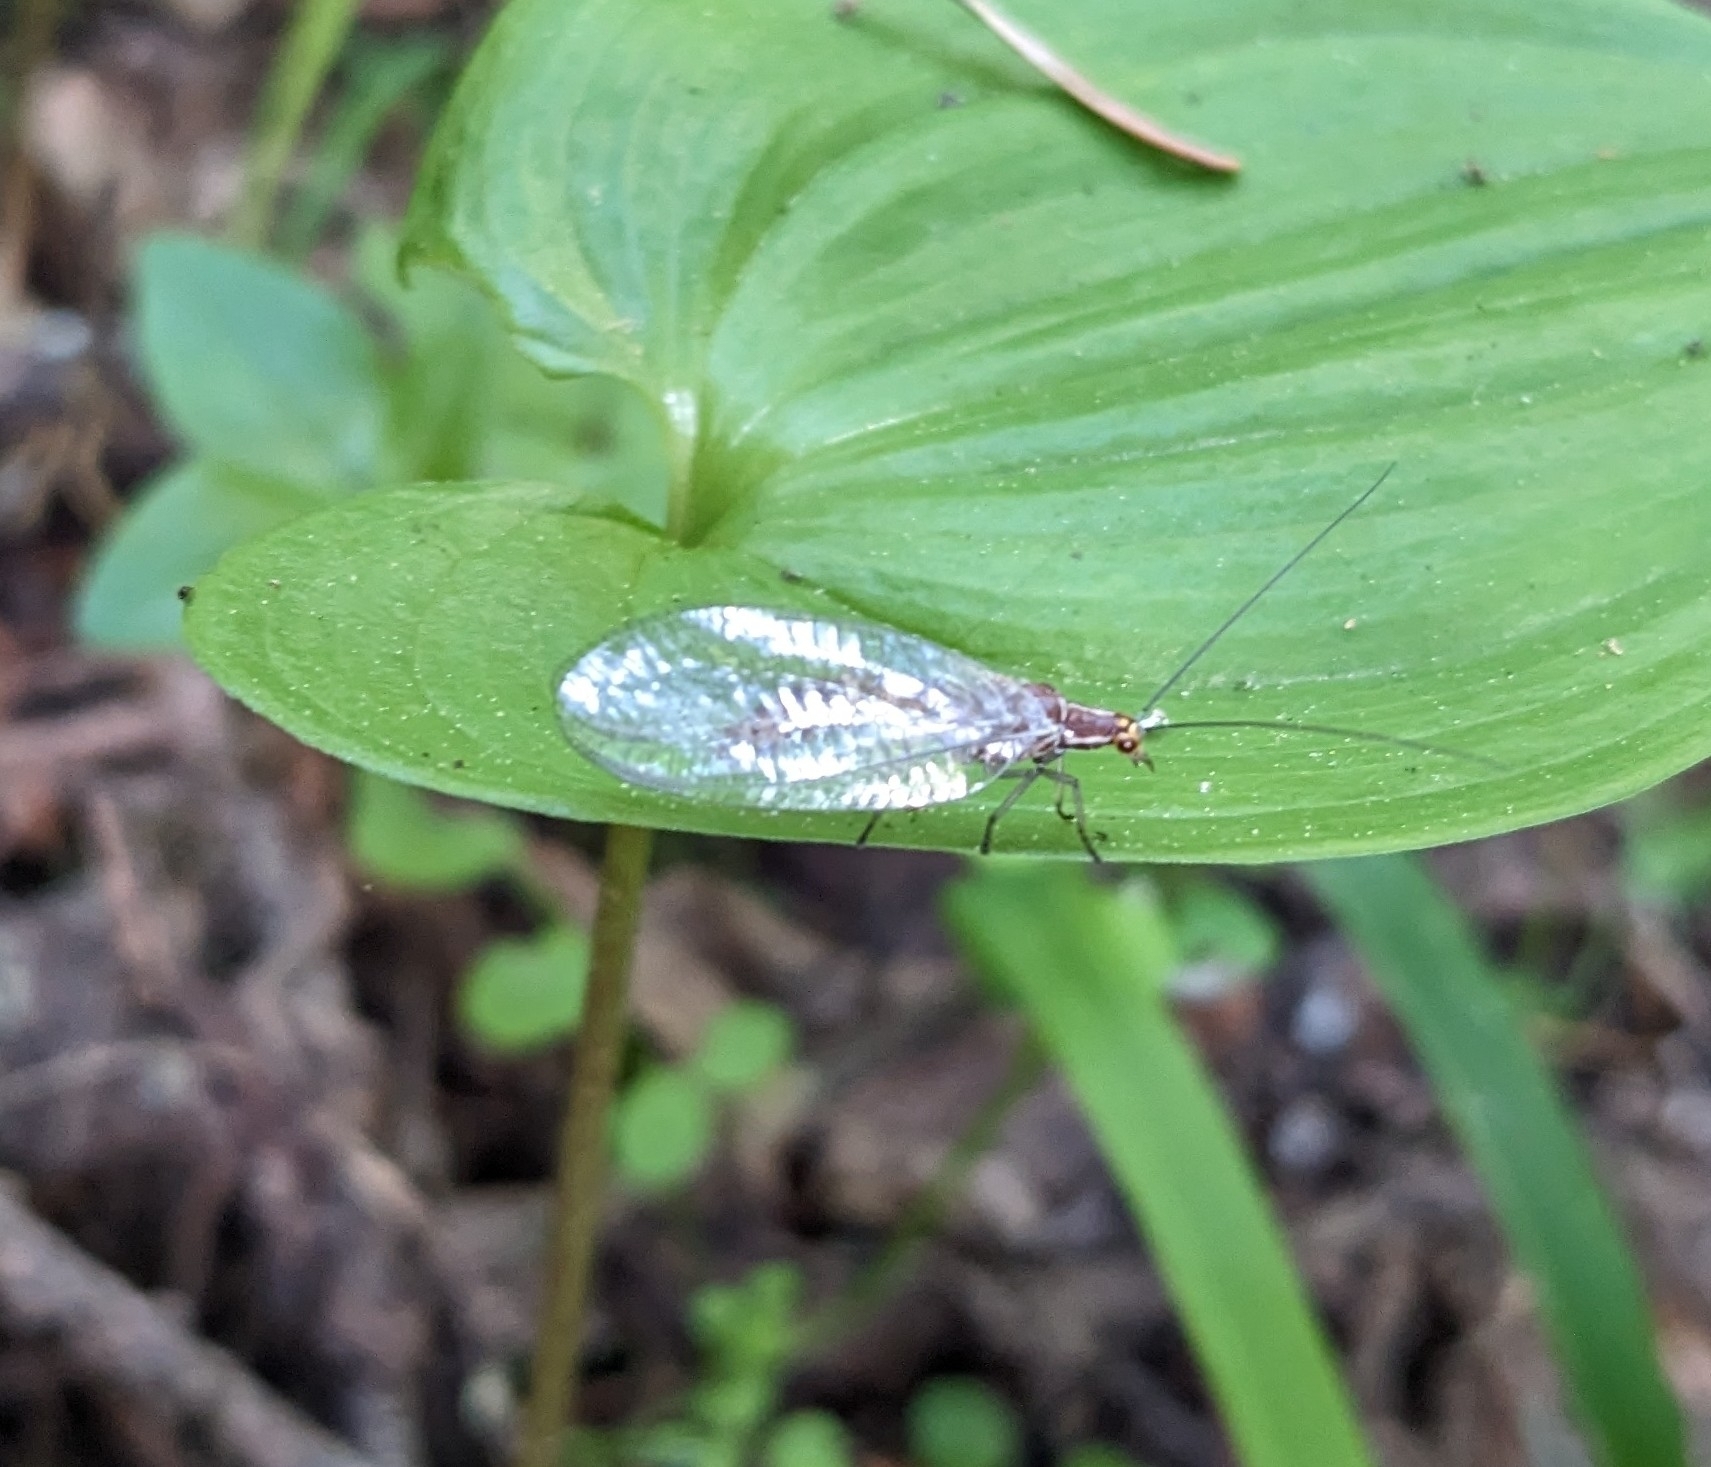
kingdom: Animalia
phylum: Arthropoda
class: Insecta
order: Neuroptera
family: Chrysopidae
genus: Nothochrysa
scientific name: Nothochrysa californica
